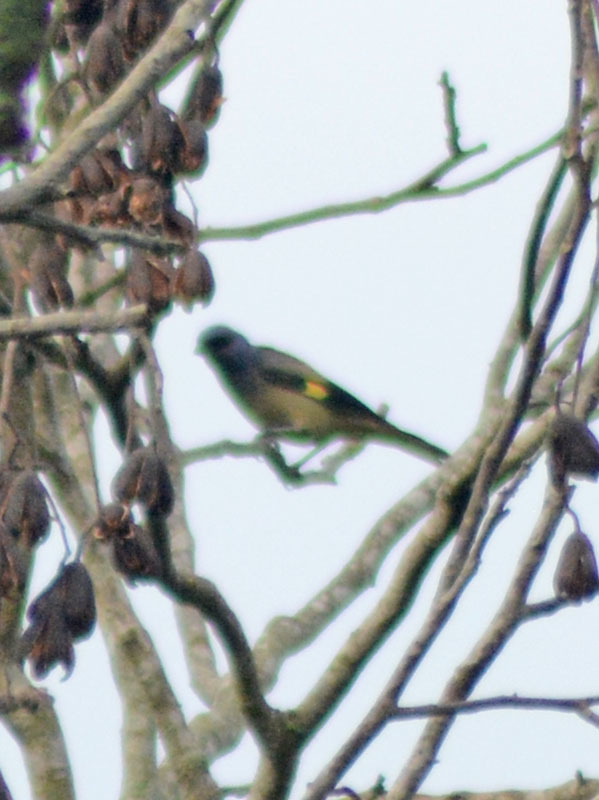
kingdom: Animalia
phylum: Chordata
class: Aves
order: Passeriformes
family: Thraupidae
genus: Thraupis
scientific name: Thraupis abbas
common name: Yellow-winged tanager
